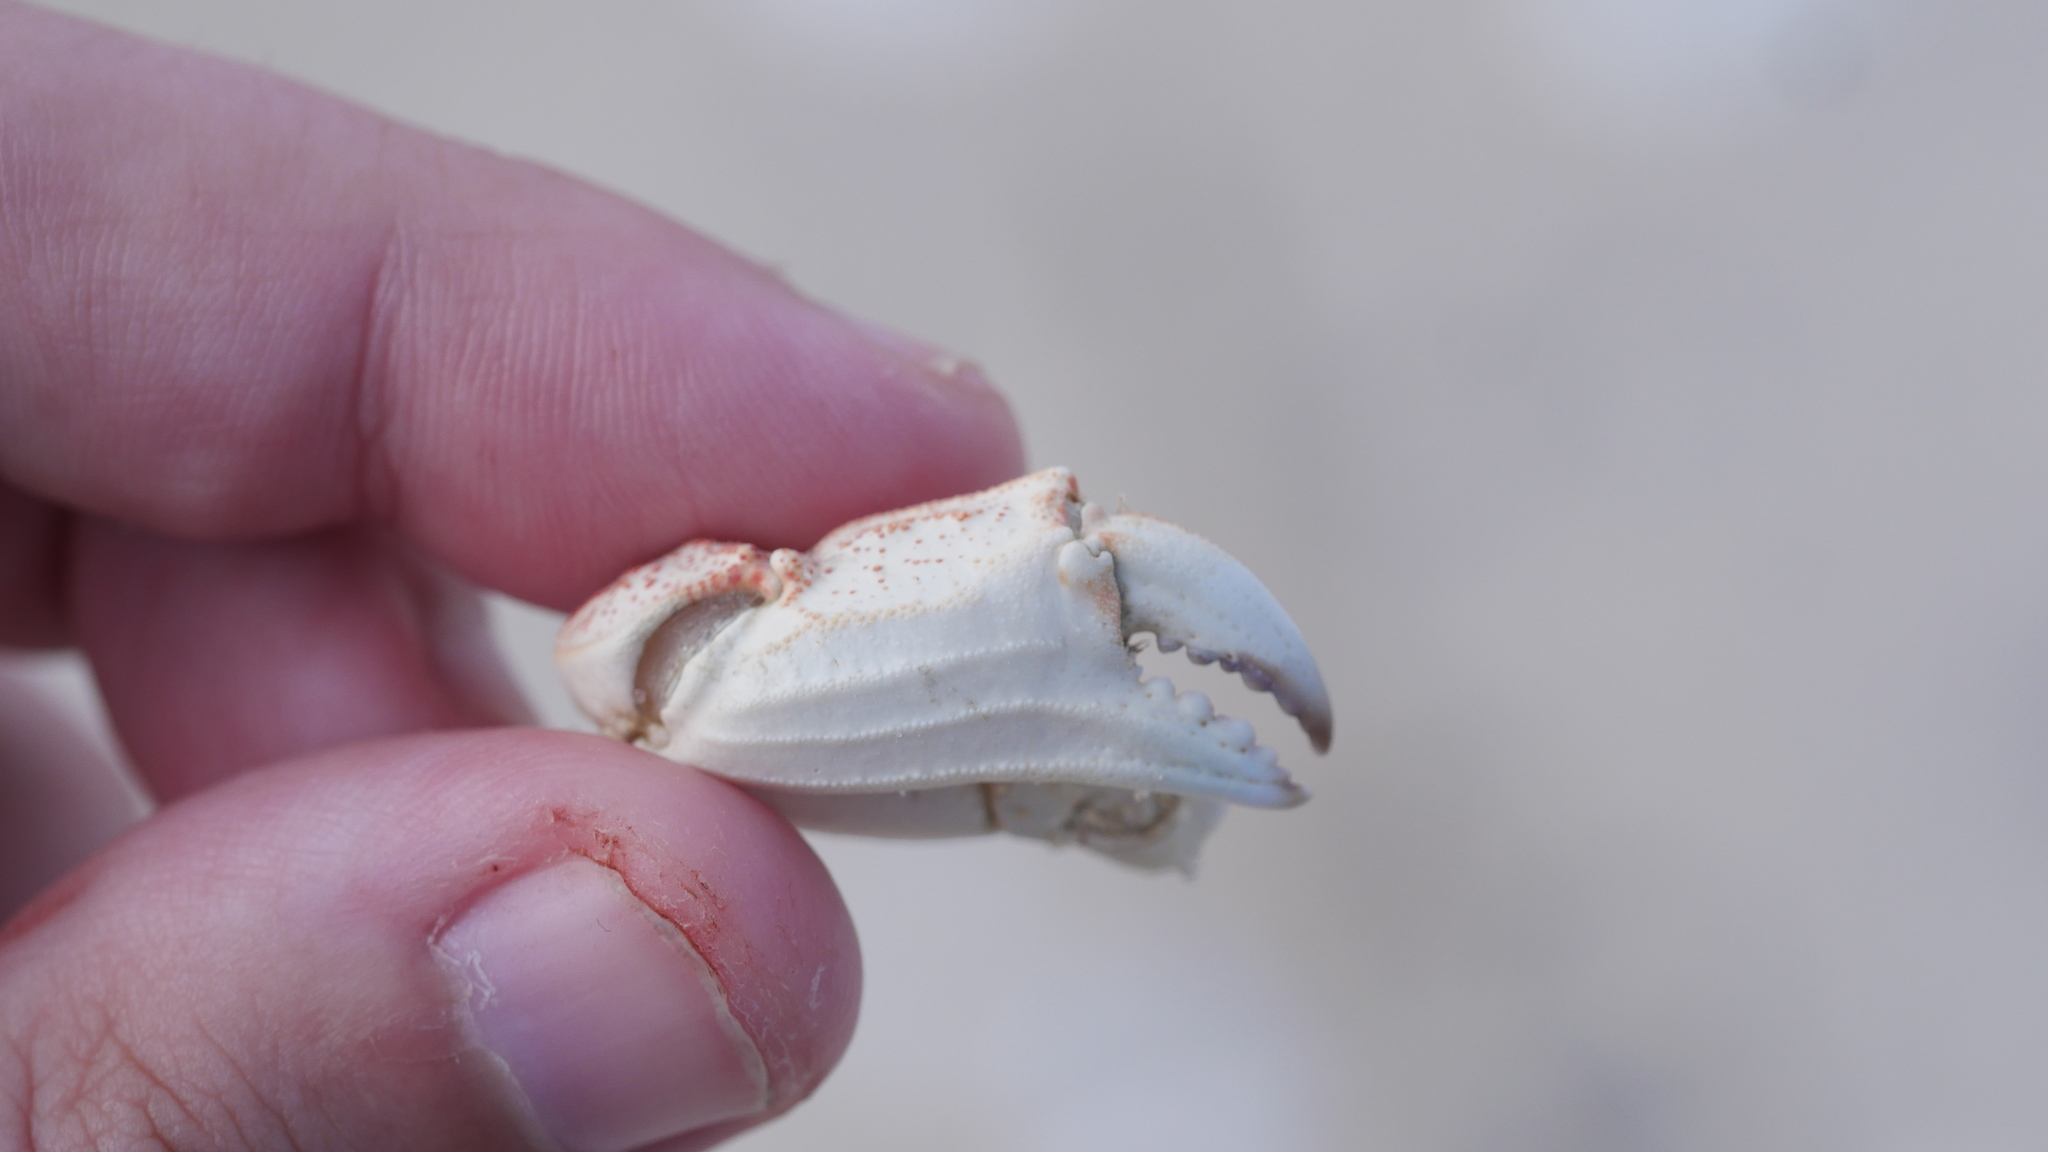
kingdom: Animalia
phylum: Arthropoda
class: Malacostraca
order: Decapoda
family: Cancridae
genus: Cancer
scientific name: Cancer irroratus
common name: Atlantic rock crab
